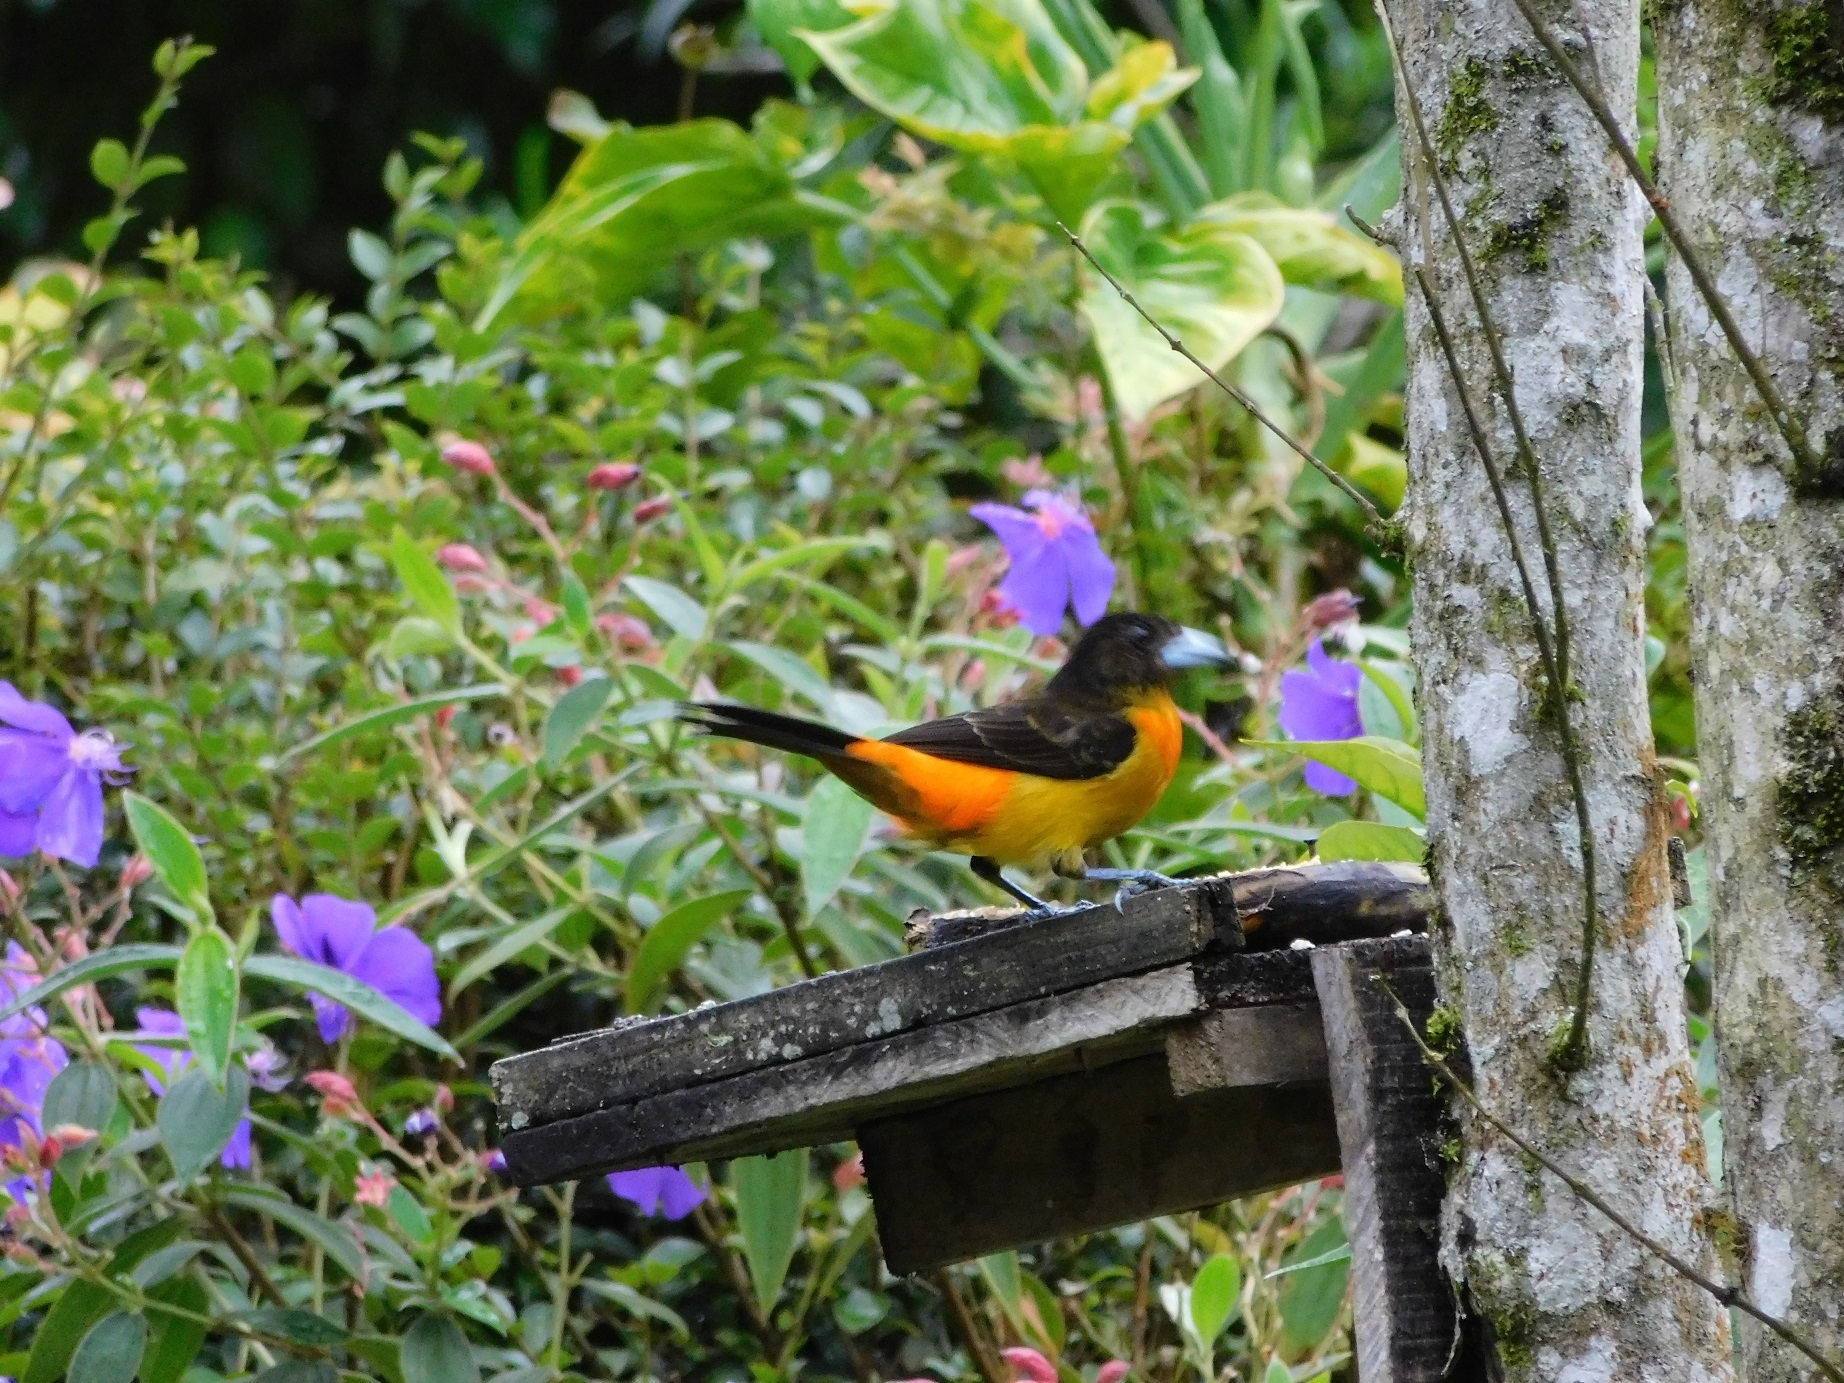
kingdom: Animalia
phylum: Chordata
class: Aves
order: Passeriformes
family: Thraupidae
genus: Ramphocelus
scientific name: Ramphocelus flammigerus
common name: Flame-rumped tanager
